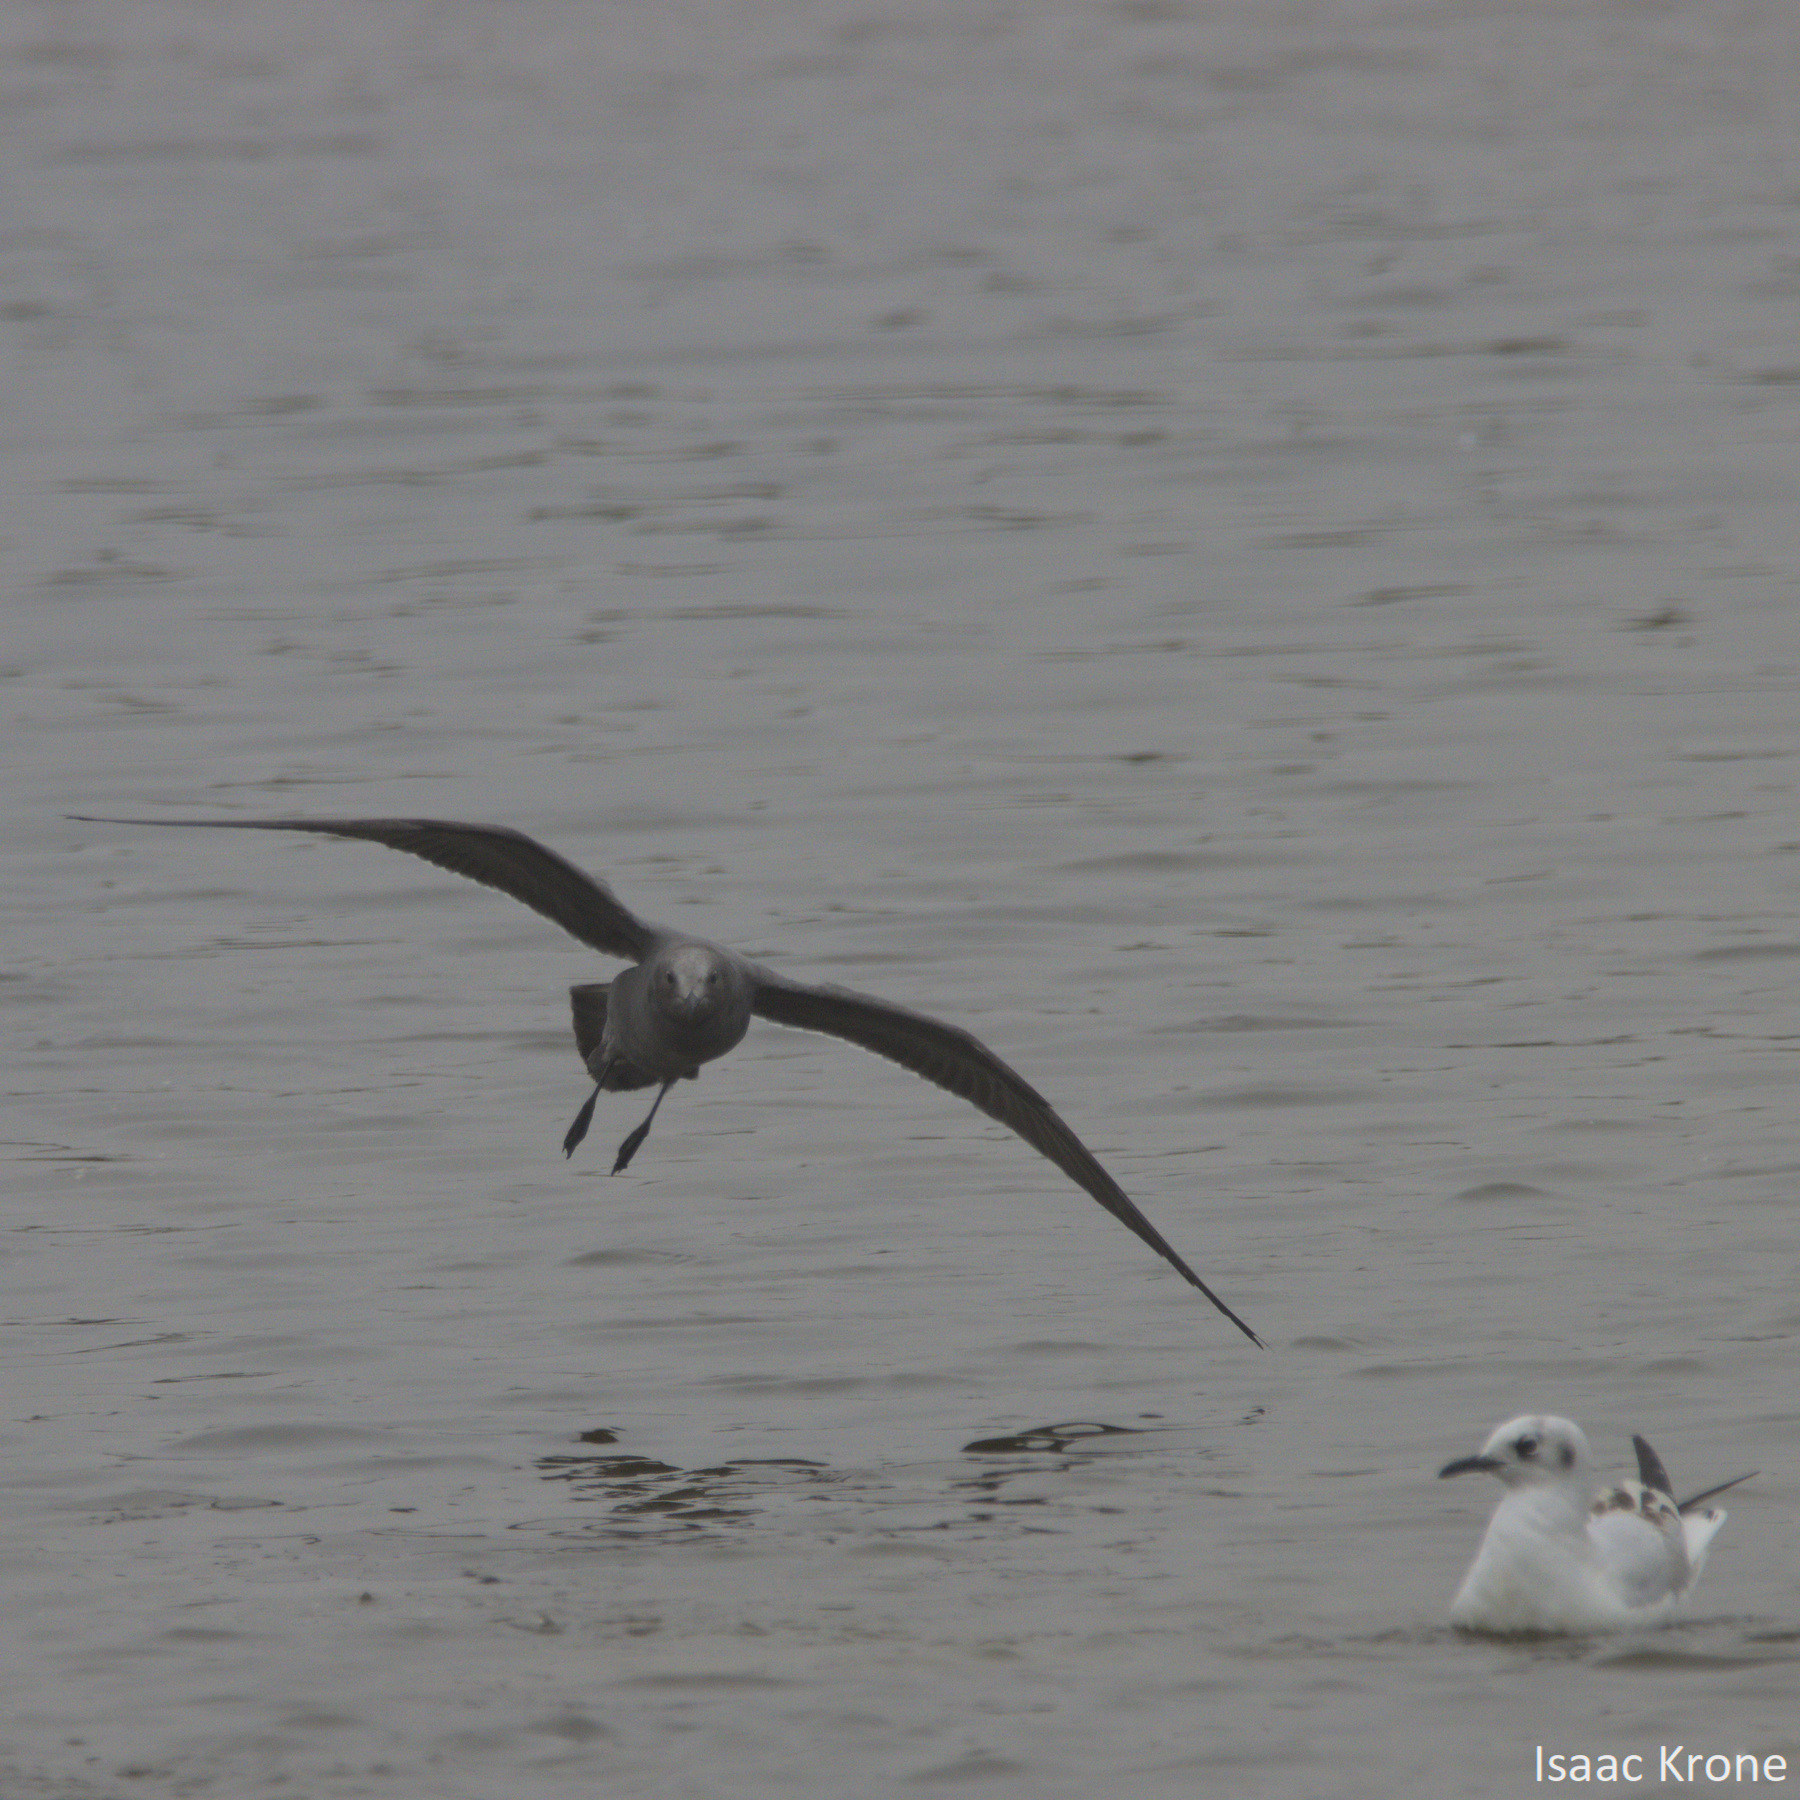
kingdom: Animalia
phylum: Chordata
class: Aves
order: Charadriiformes
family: Laridae
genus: Leucophaeus
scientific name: Leucophaeus modestus
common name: Gray gull
